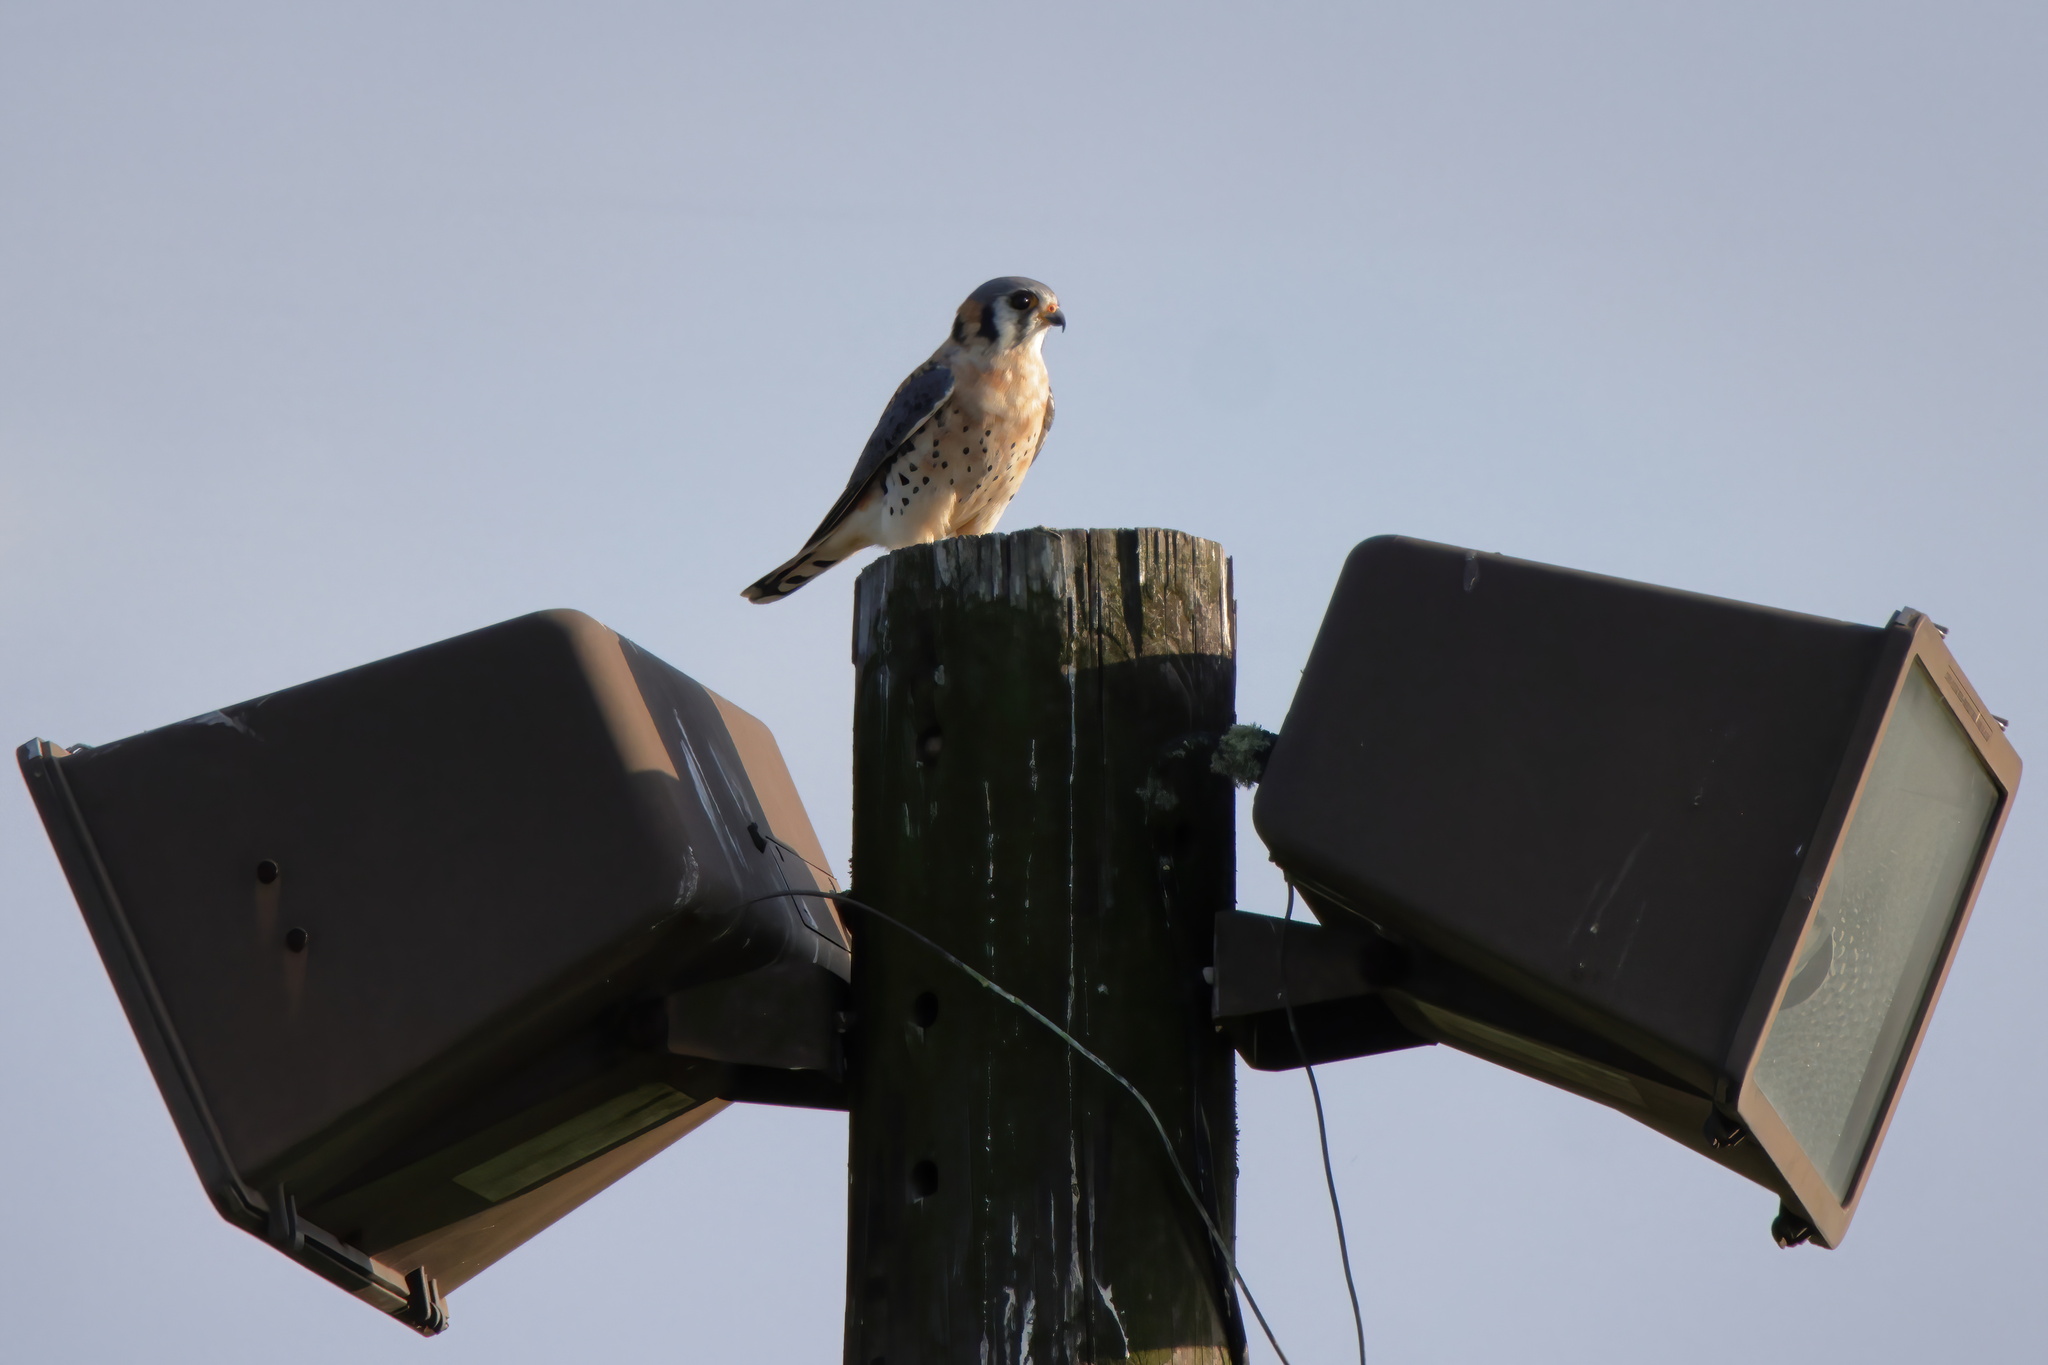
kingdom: Animalia
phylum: Chordata
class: Aves
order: Falconiformes
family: Falconidae
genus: Falco
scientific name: Falco sparverius
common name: American kestrel
